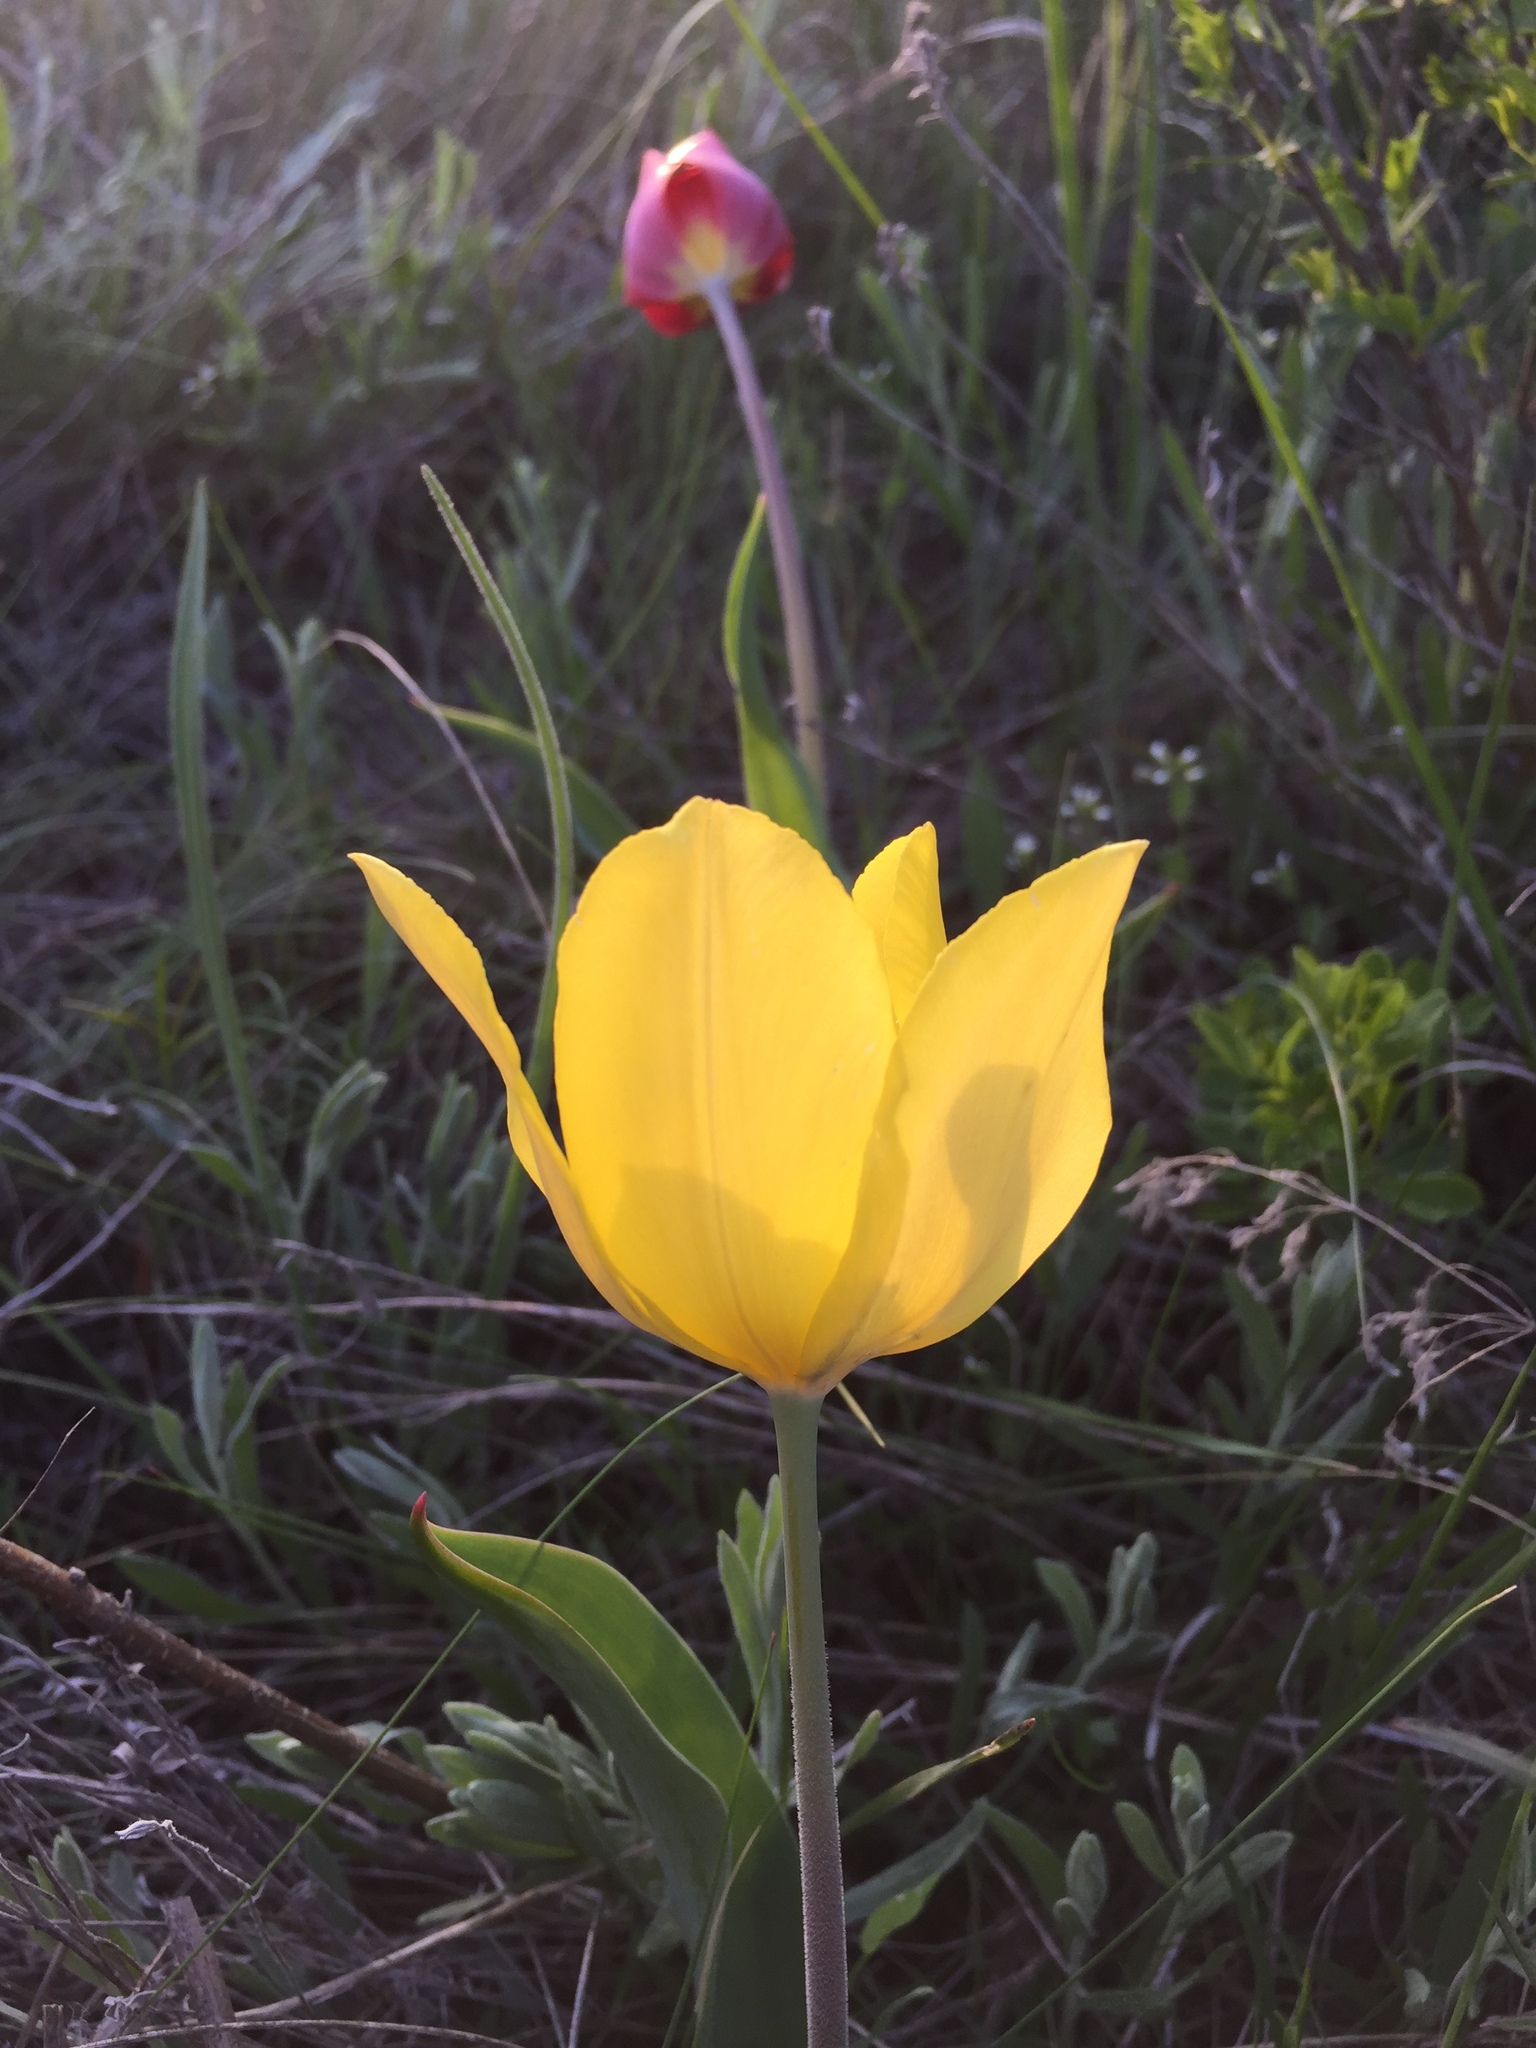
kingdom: Plantae
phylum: Tracheophyta
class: Liliopsida
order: Liliales
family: Liliaceae
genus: Tulipa
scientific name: Tulipa suaveolens
